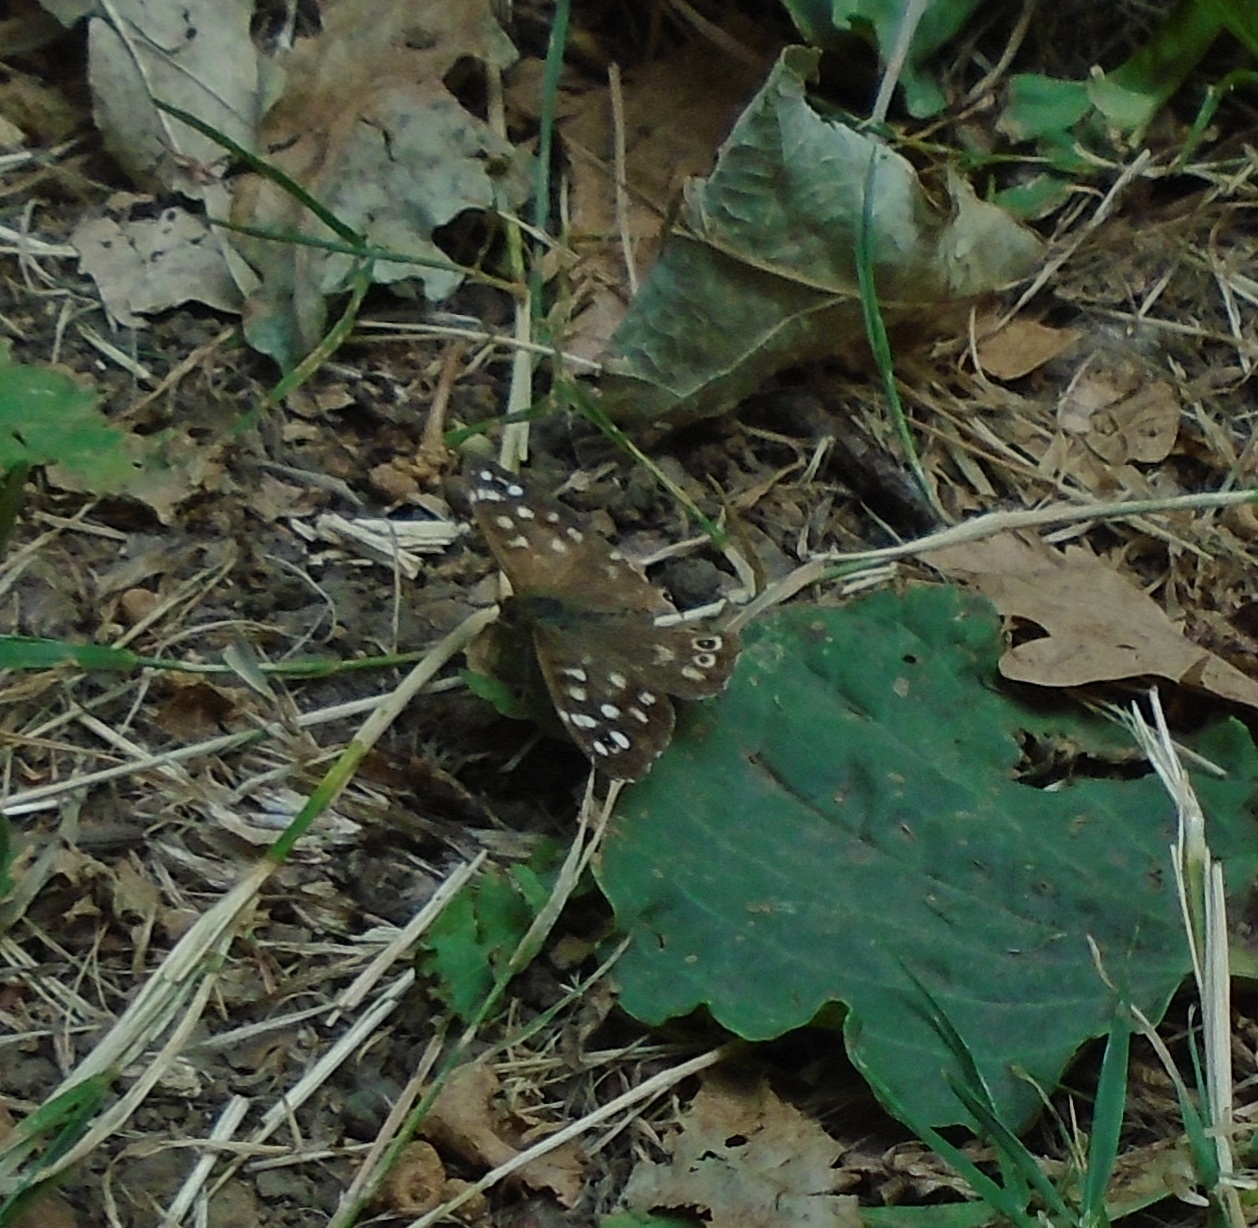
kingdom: Animalia
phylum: Arthropoda
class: Insecta
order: Lepidoptera
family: Nymphalidae
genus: Pararge
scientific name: Pararge aegeria
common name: Speckled wood
